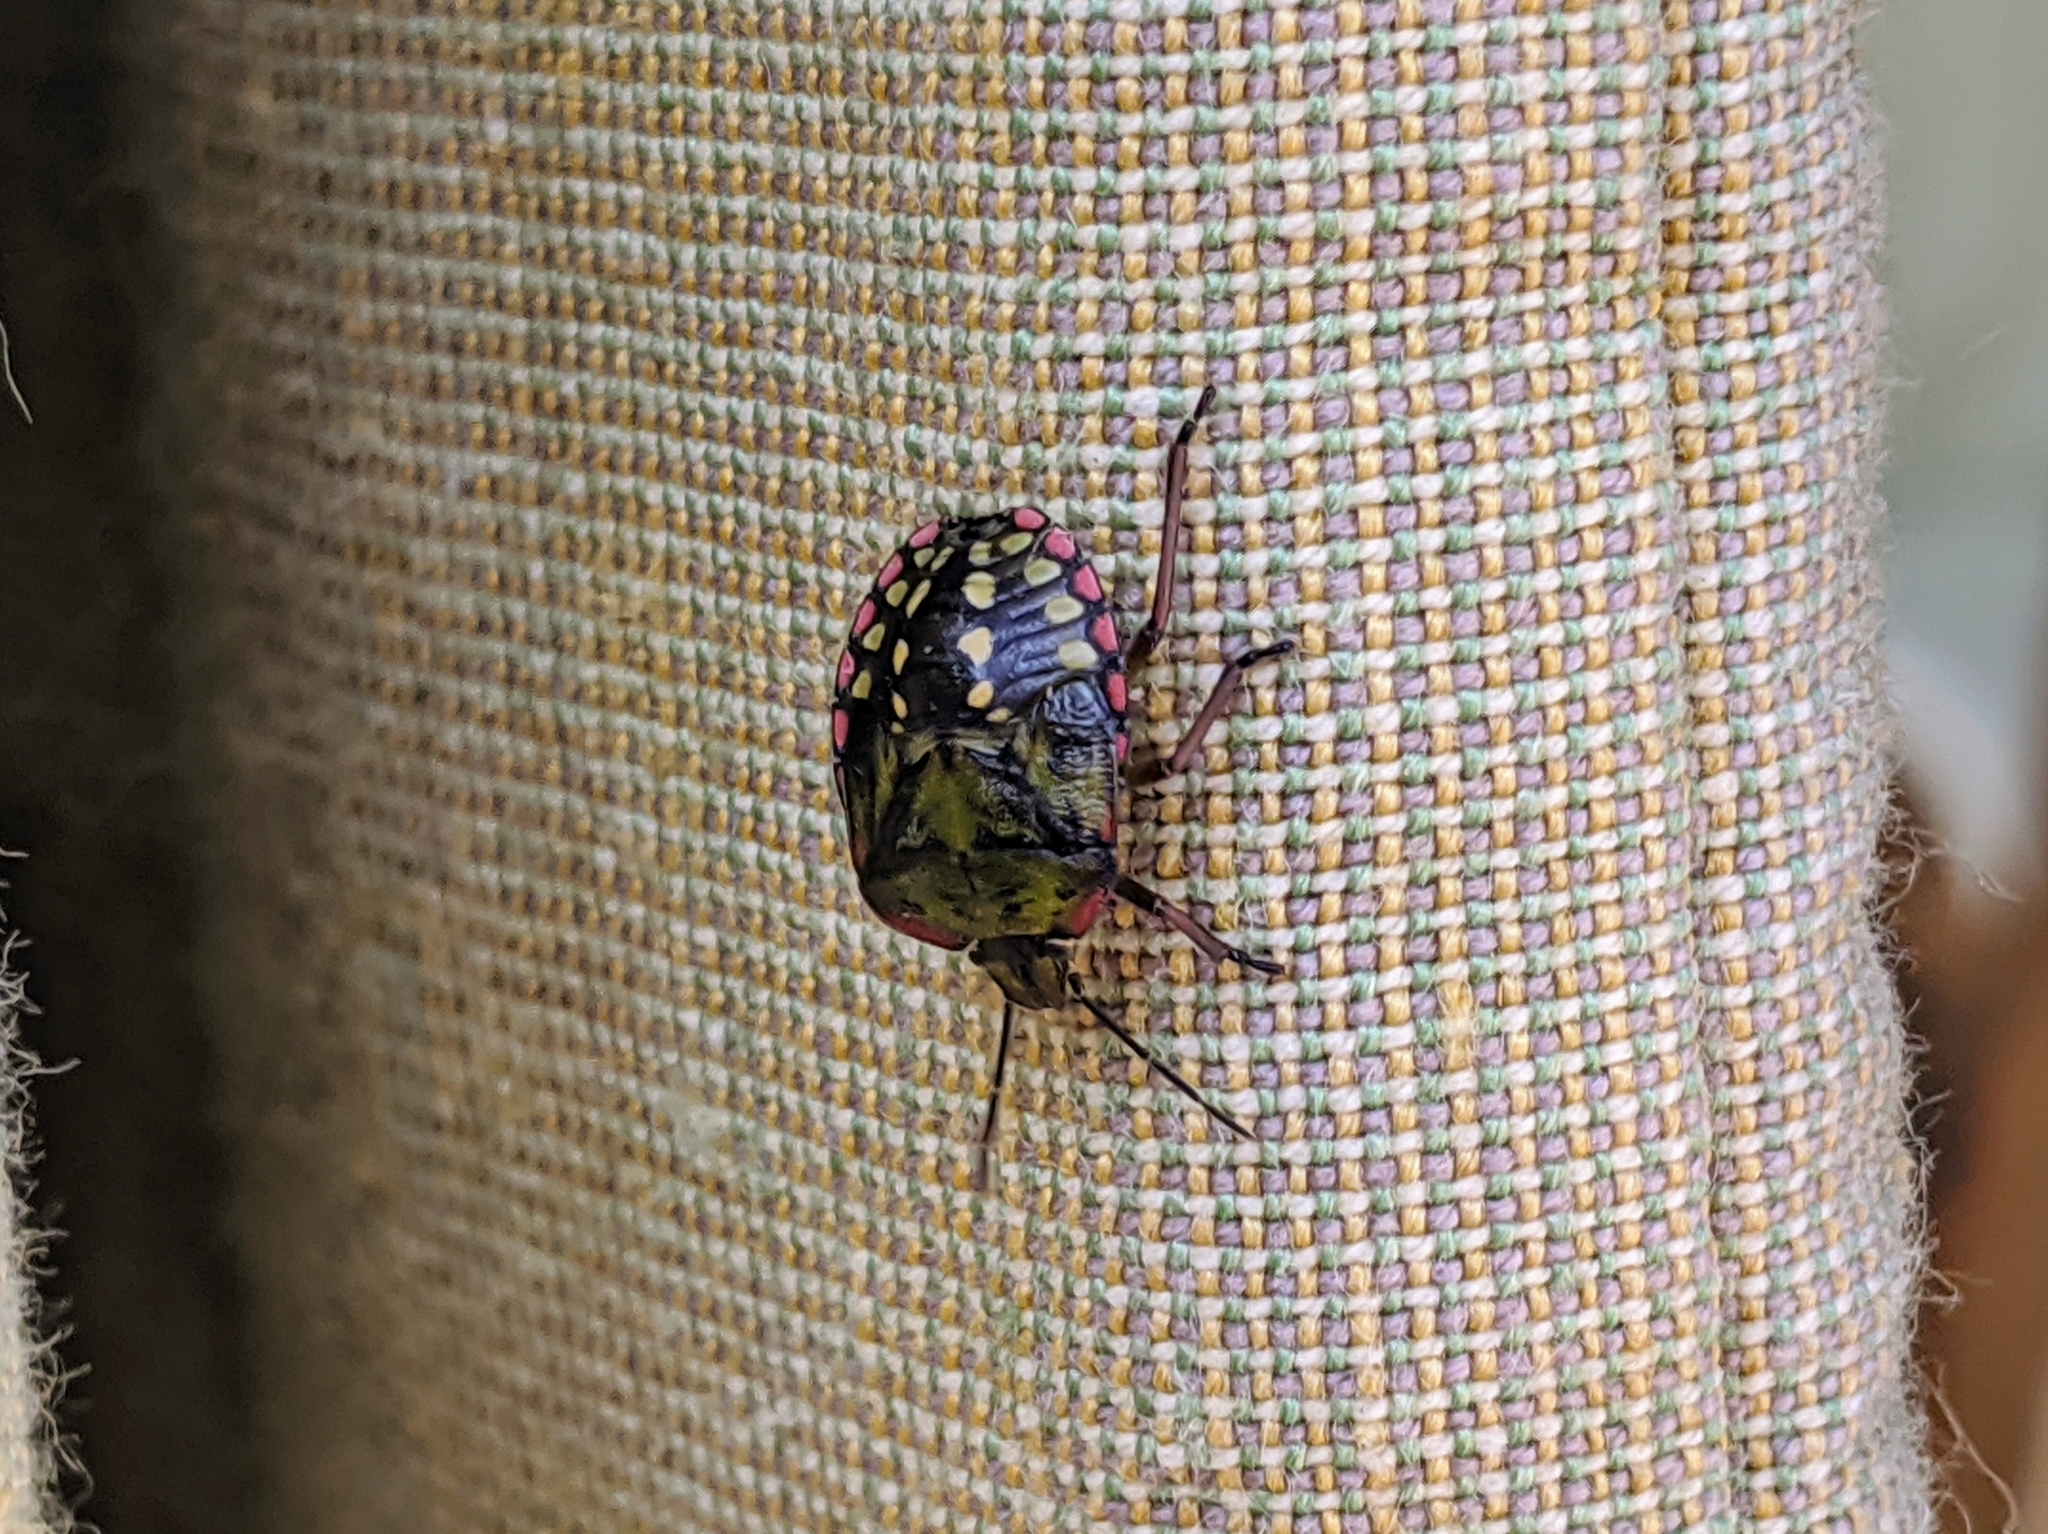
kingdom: Animalia
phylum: Arthropoda
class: Insecta
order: Hemiptera
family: Pentatomidae
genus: Nezara
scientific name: Nezara viridula
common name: Southern green stink bug
